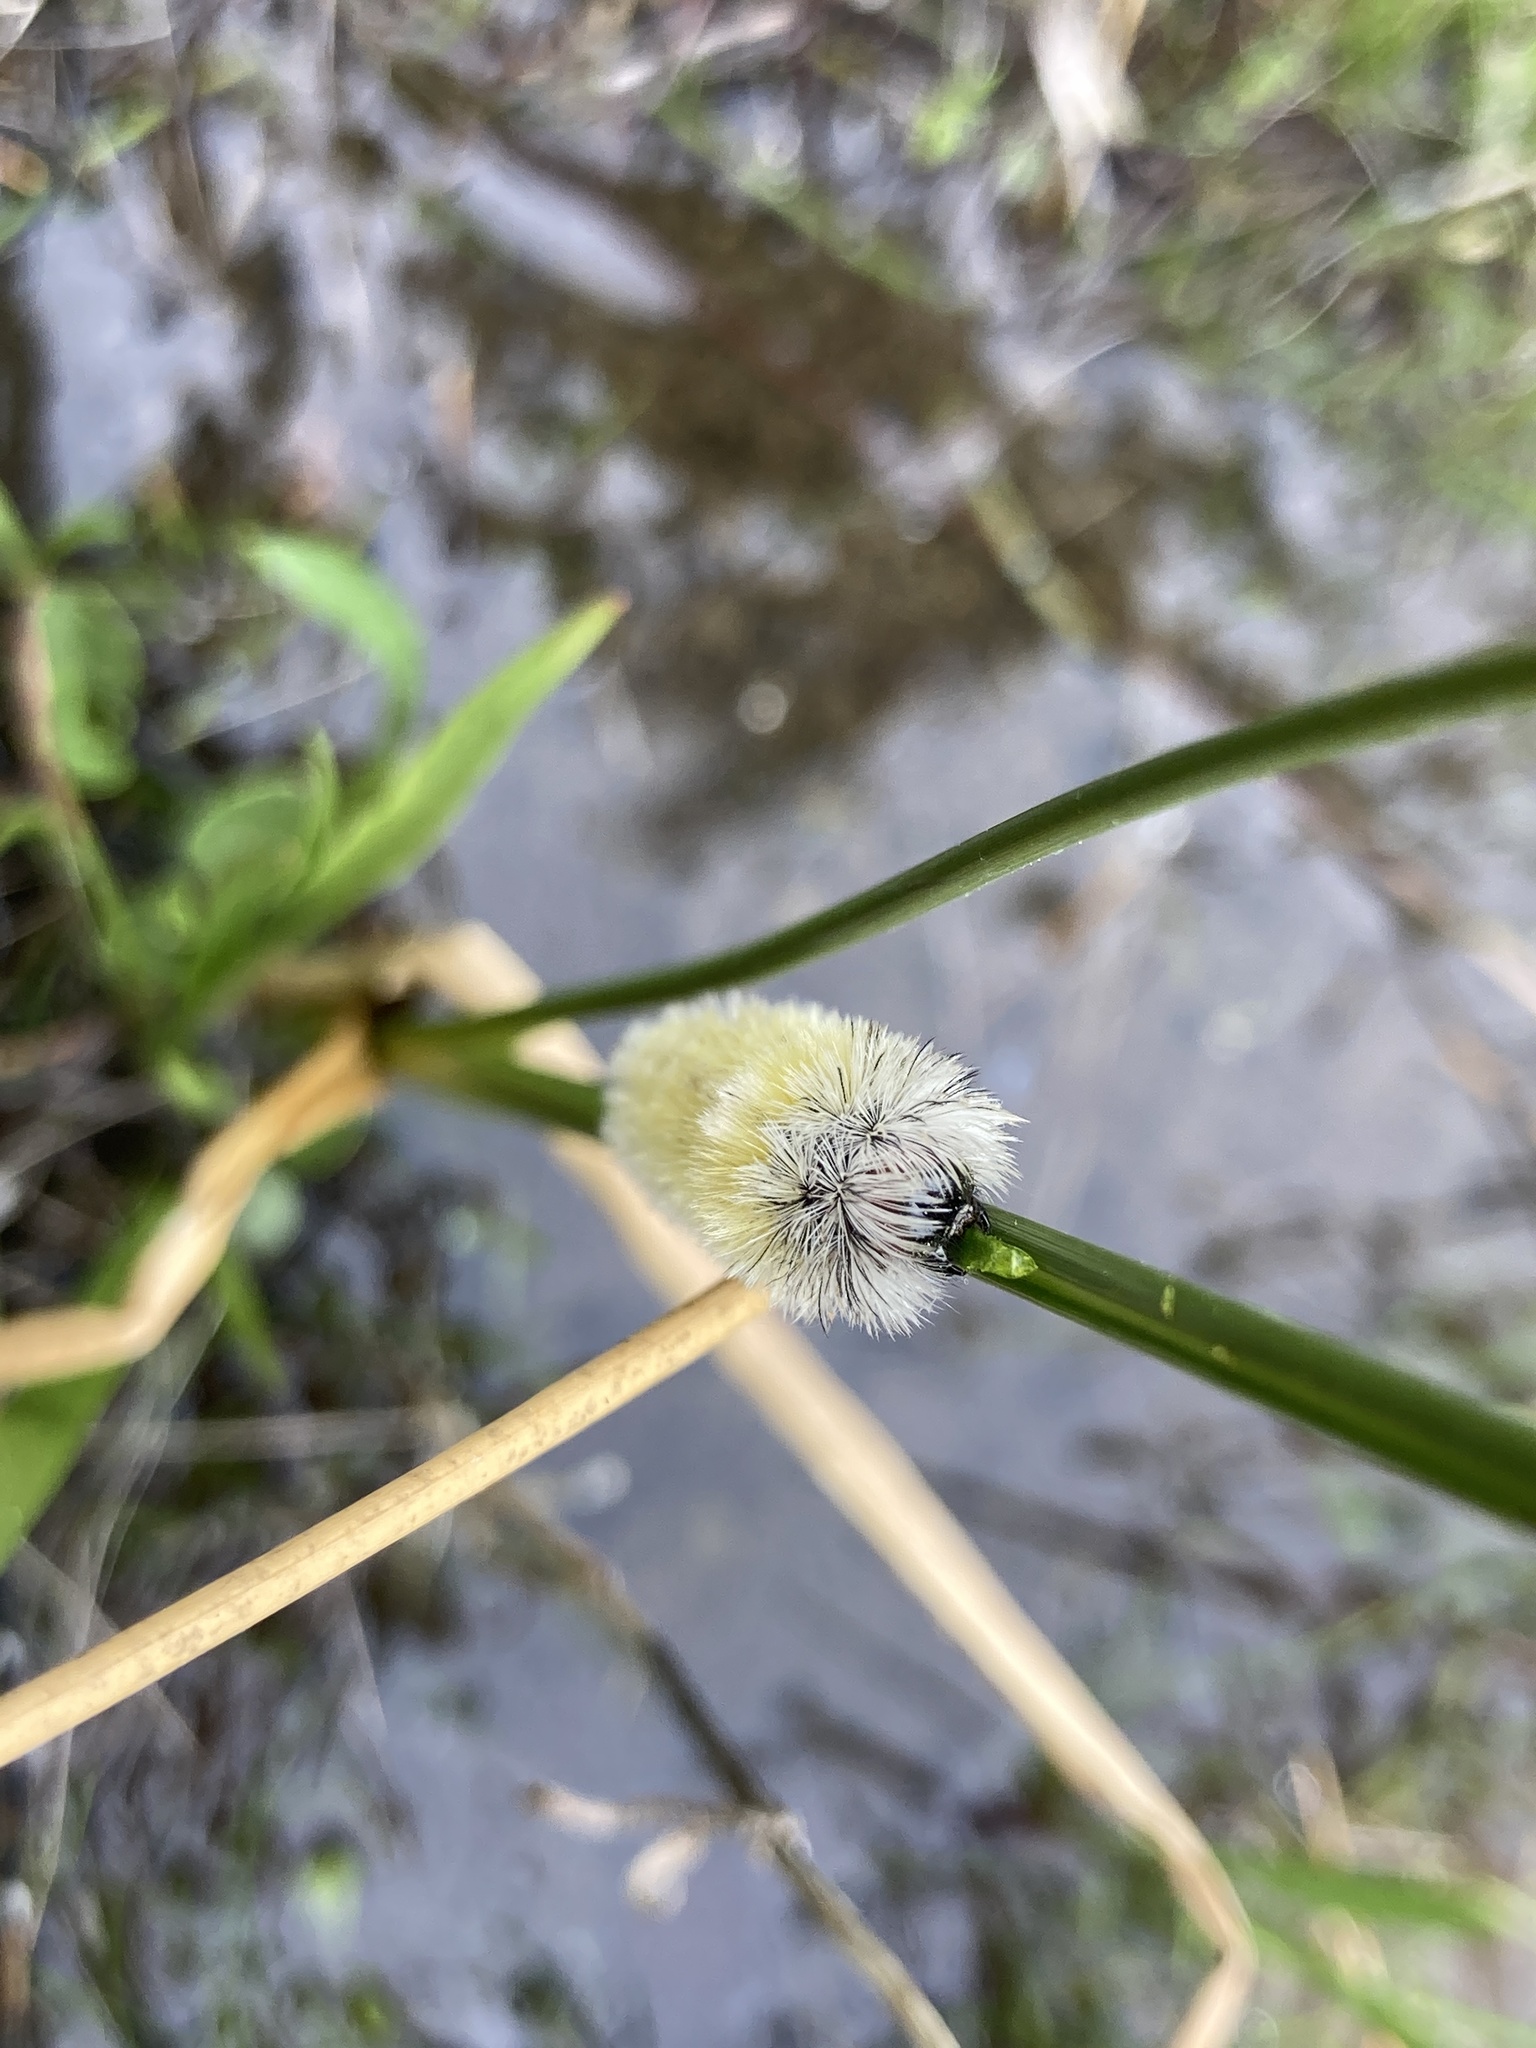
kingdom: Animalia
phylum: Arthropoda
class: Insecta
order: Lepidoptera
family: Erebidae
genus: Ctenucha
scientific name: Ctenucha virginica
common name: Virginia ctenucha moth
